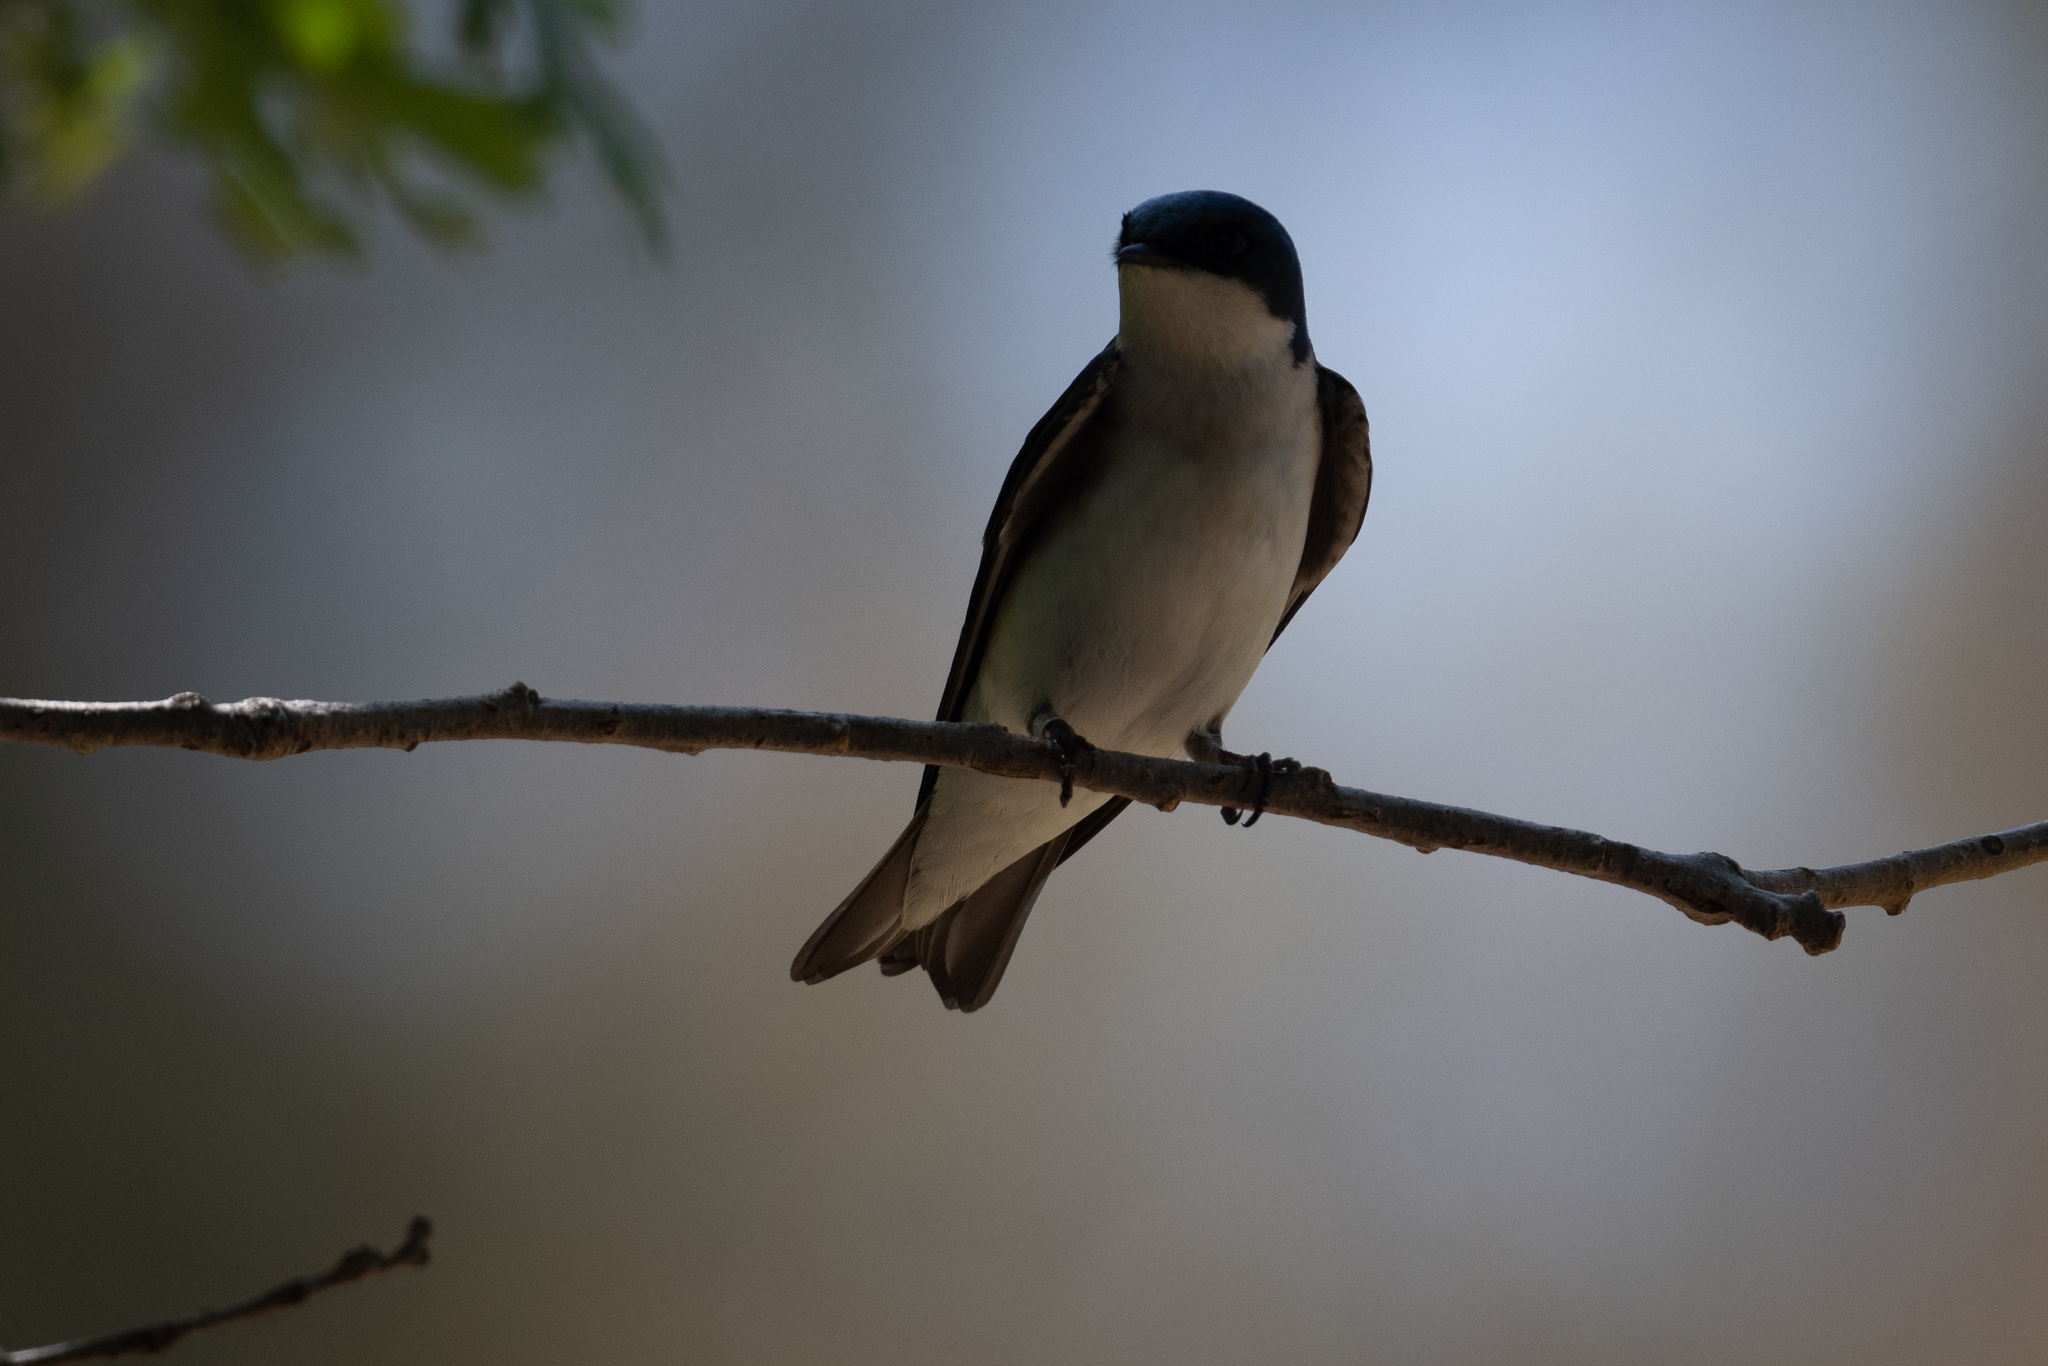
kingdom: Animalia
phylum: Chordata
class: Aves
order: Passeriformes
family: Hirundinidae
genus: Tachycineta
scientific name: Tachycineta bicolor
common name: Tree swallow
